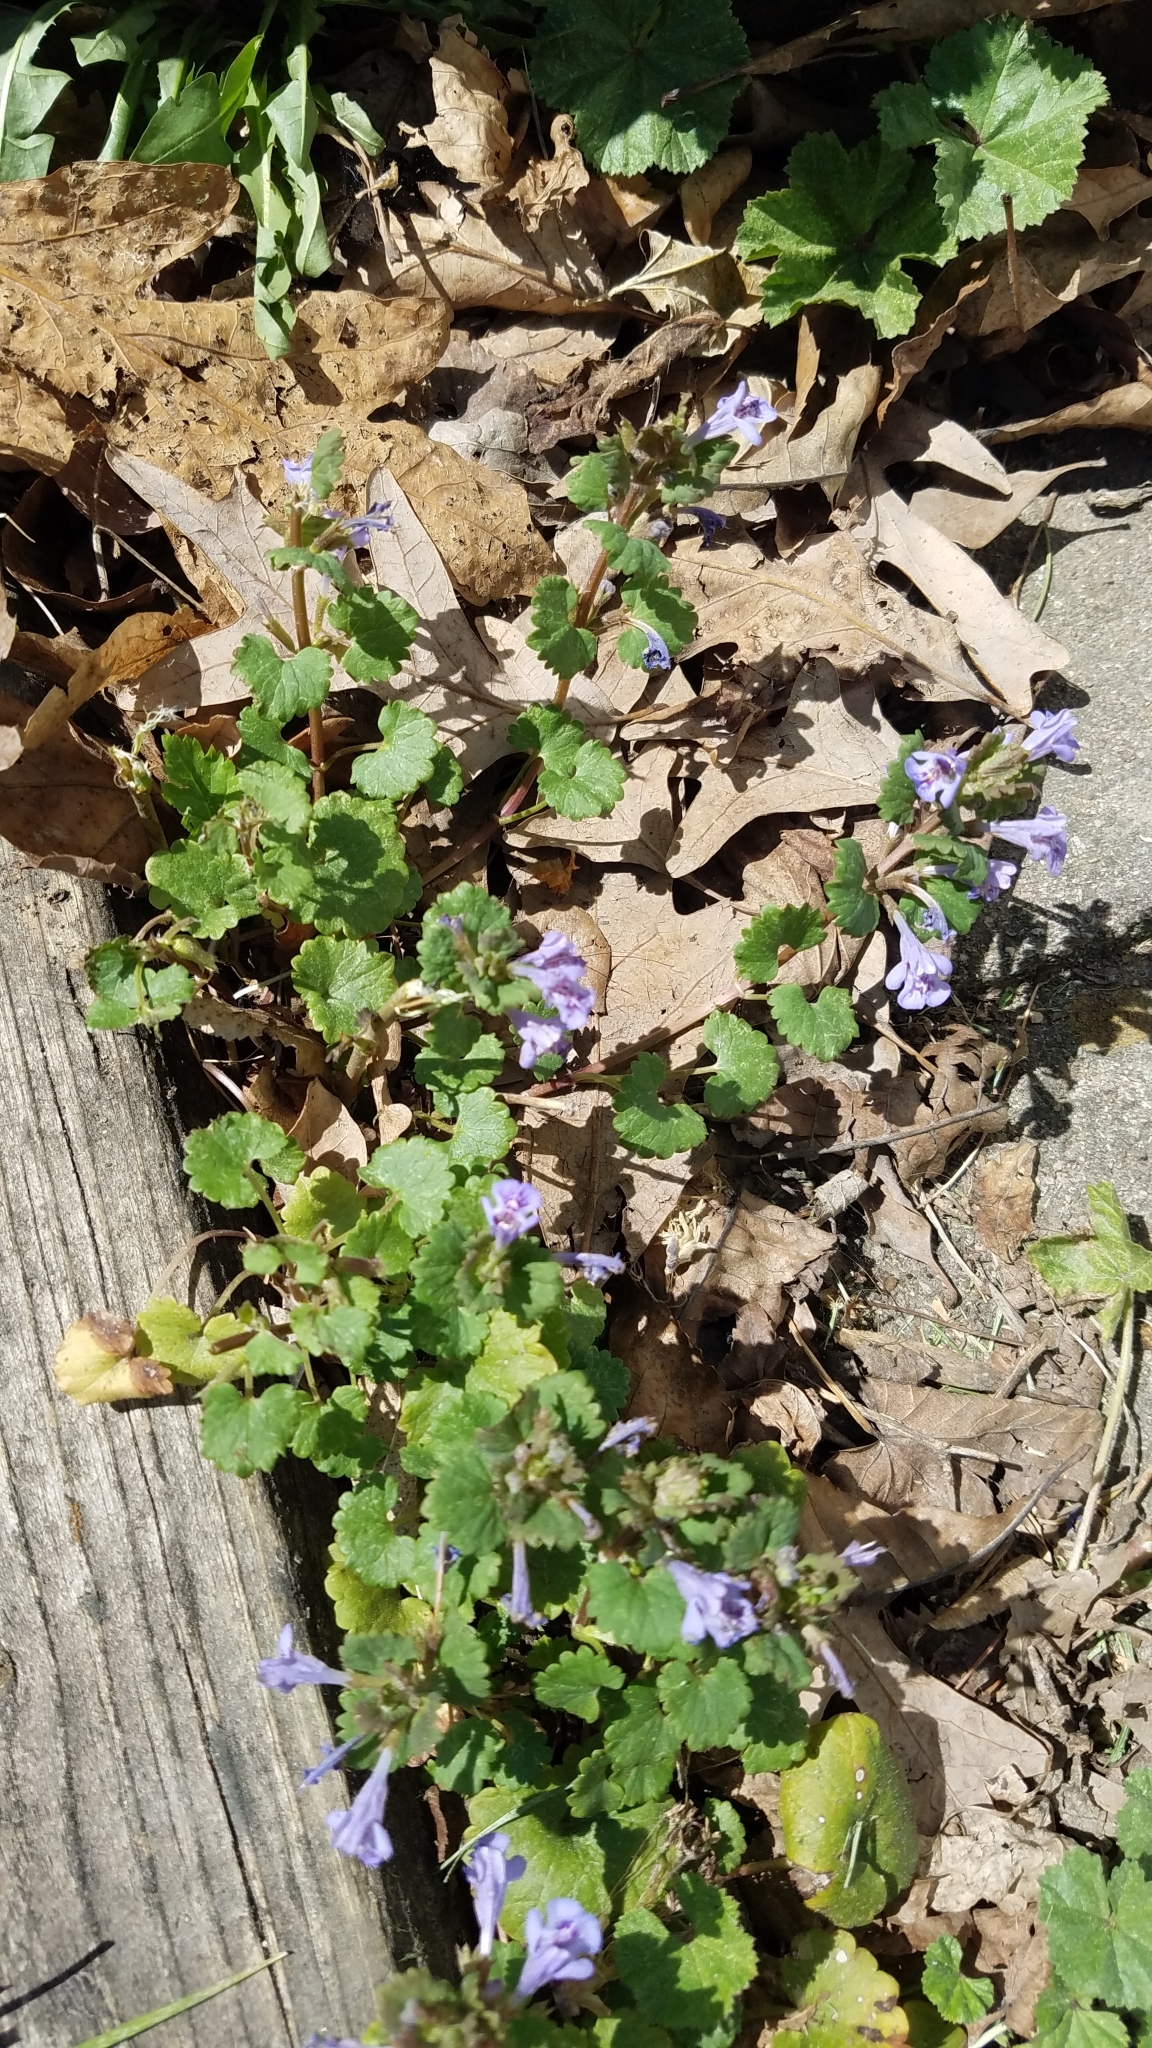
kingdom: Plantae
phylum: Tracheophyta
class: Magnoliopsida
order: Lamiales
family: Lamiaceae
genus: Glechoma
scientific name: Glechoma hederacea
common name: Ground ivy
